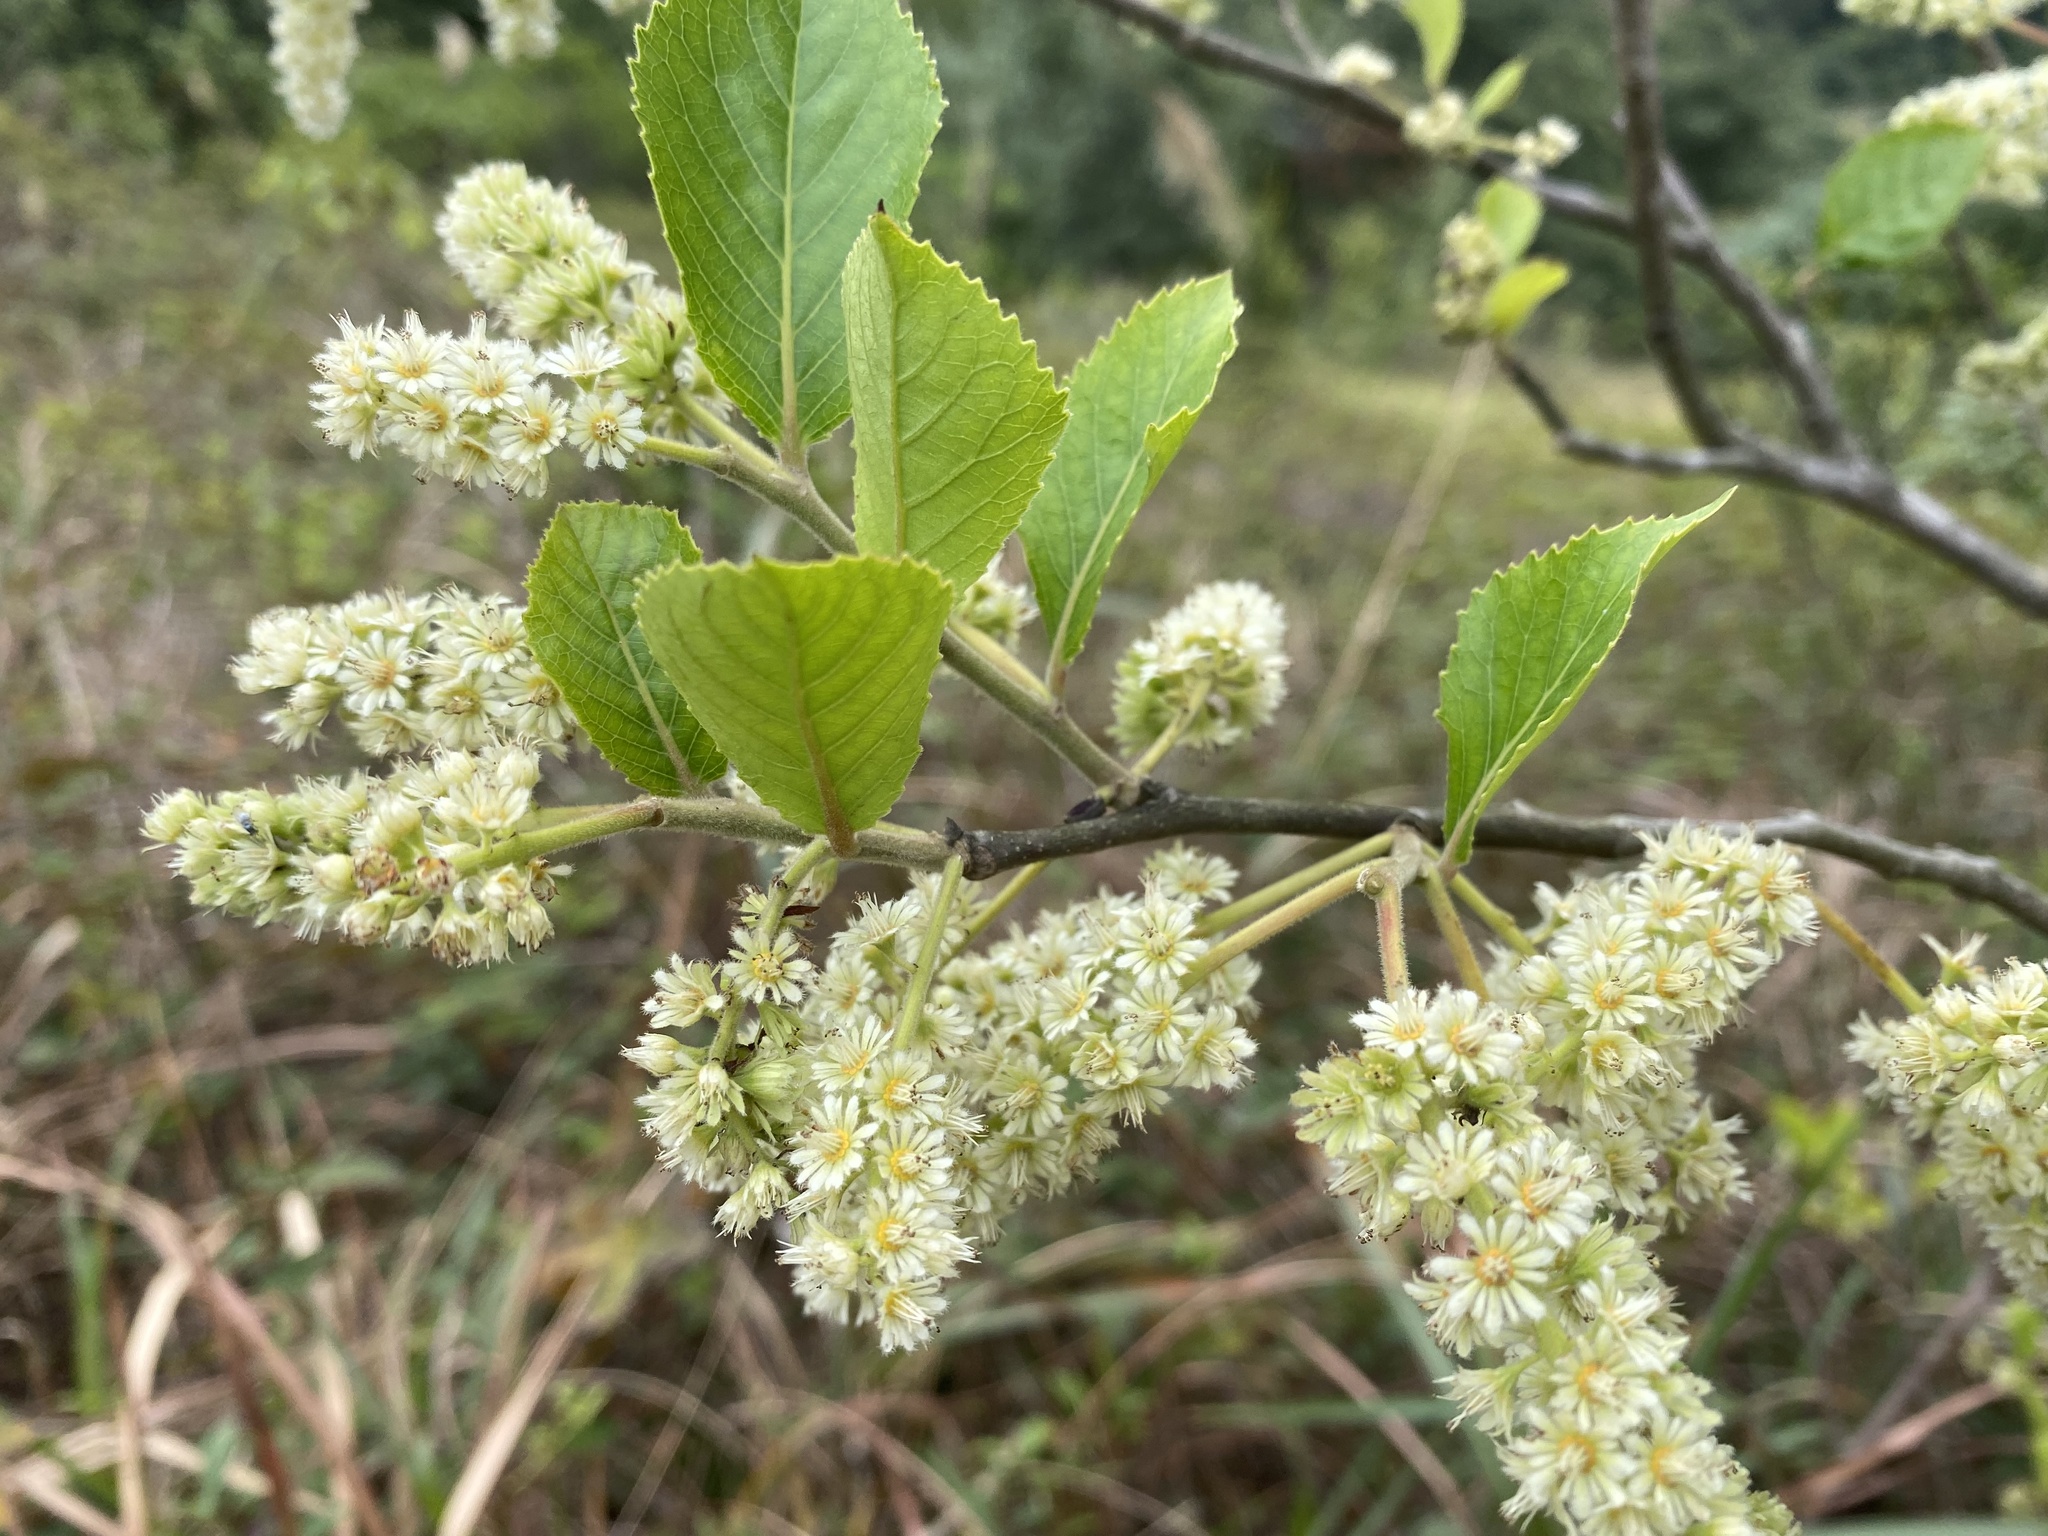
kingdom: Plantae
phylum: Tracheophyta
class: Magnoliopsida
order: Malpighiales
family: Salicaceae
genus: Homalium
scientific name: Homalium cochinchinensis
